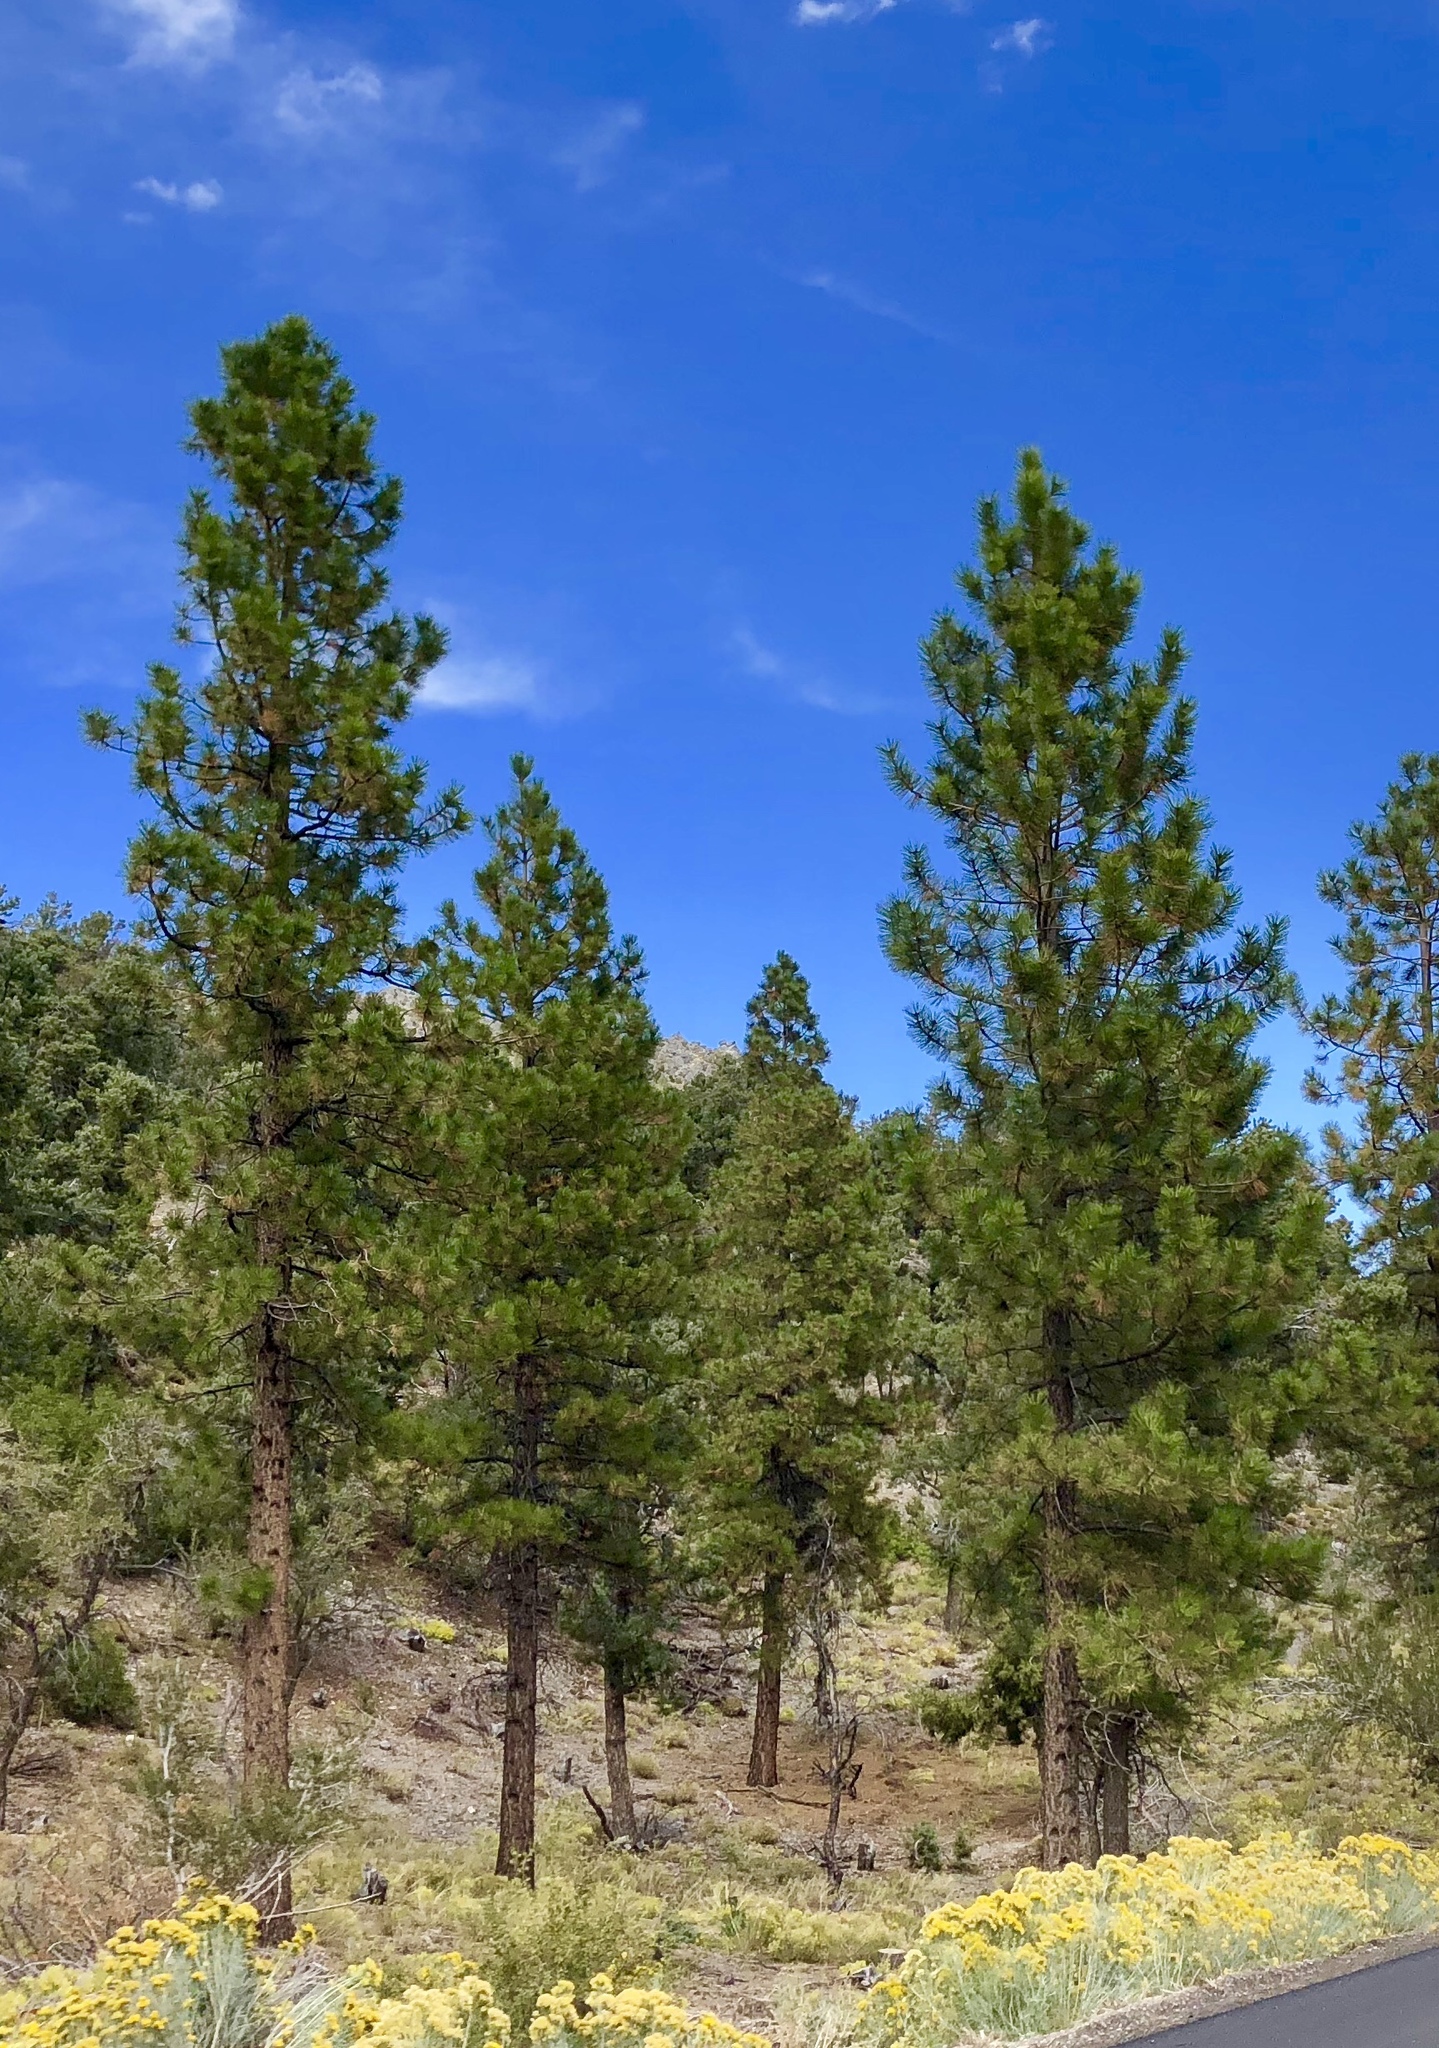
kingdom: Plantae
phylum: Tracheophyta
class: Pinopsida
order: Pinales
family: Pinaceae
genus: Pinus
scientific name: Pinus ponderosa
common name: Western yellow-pine
